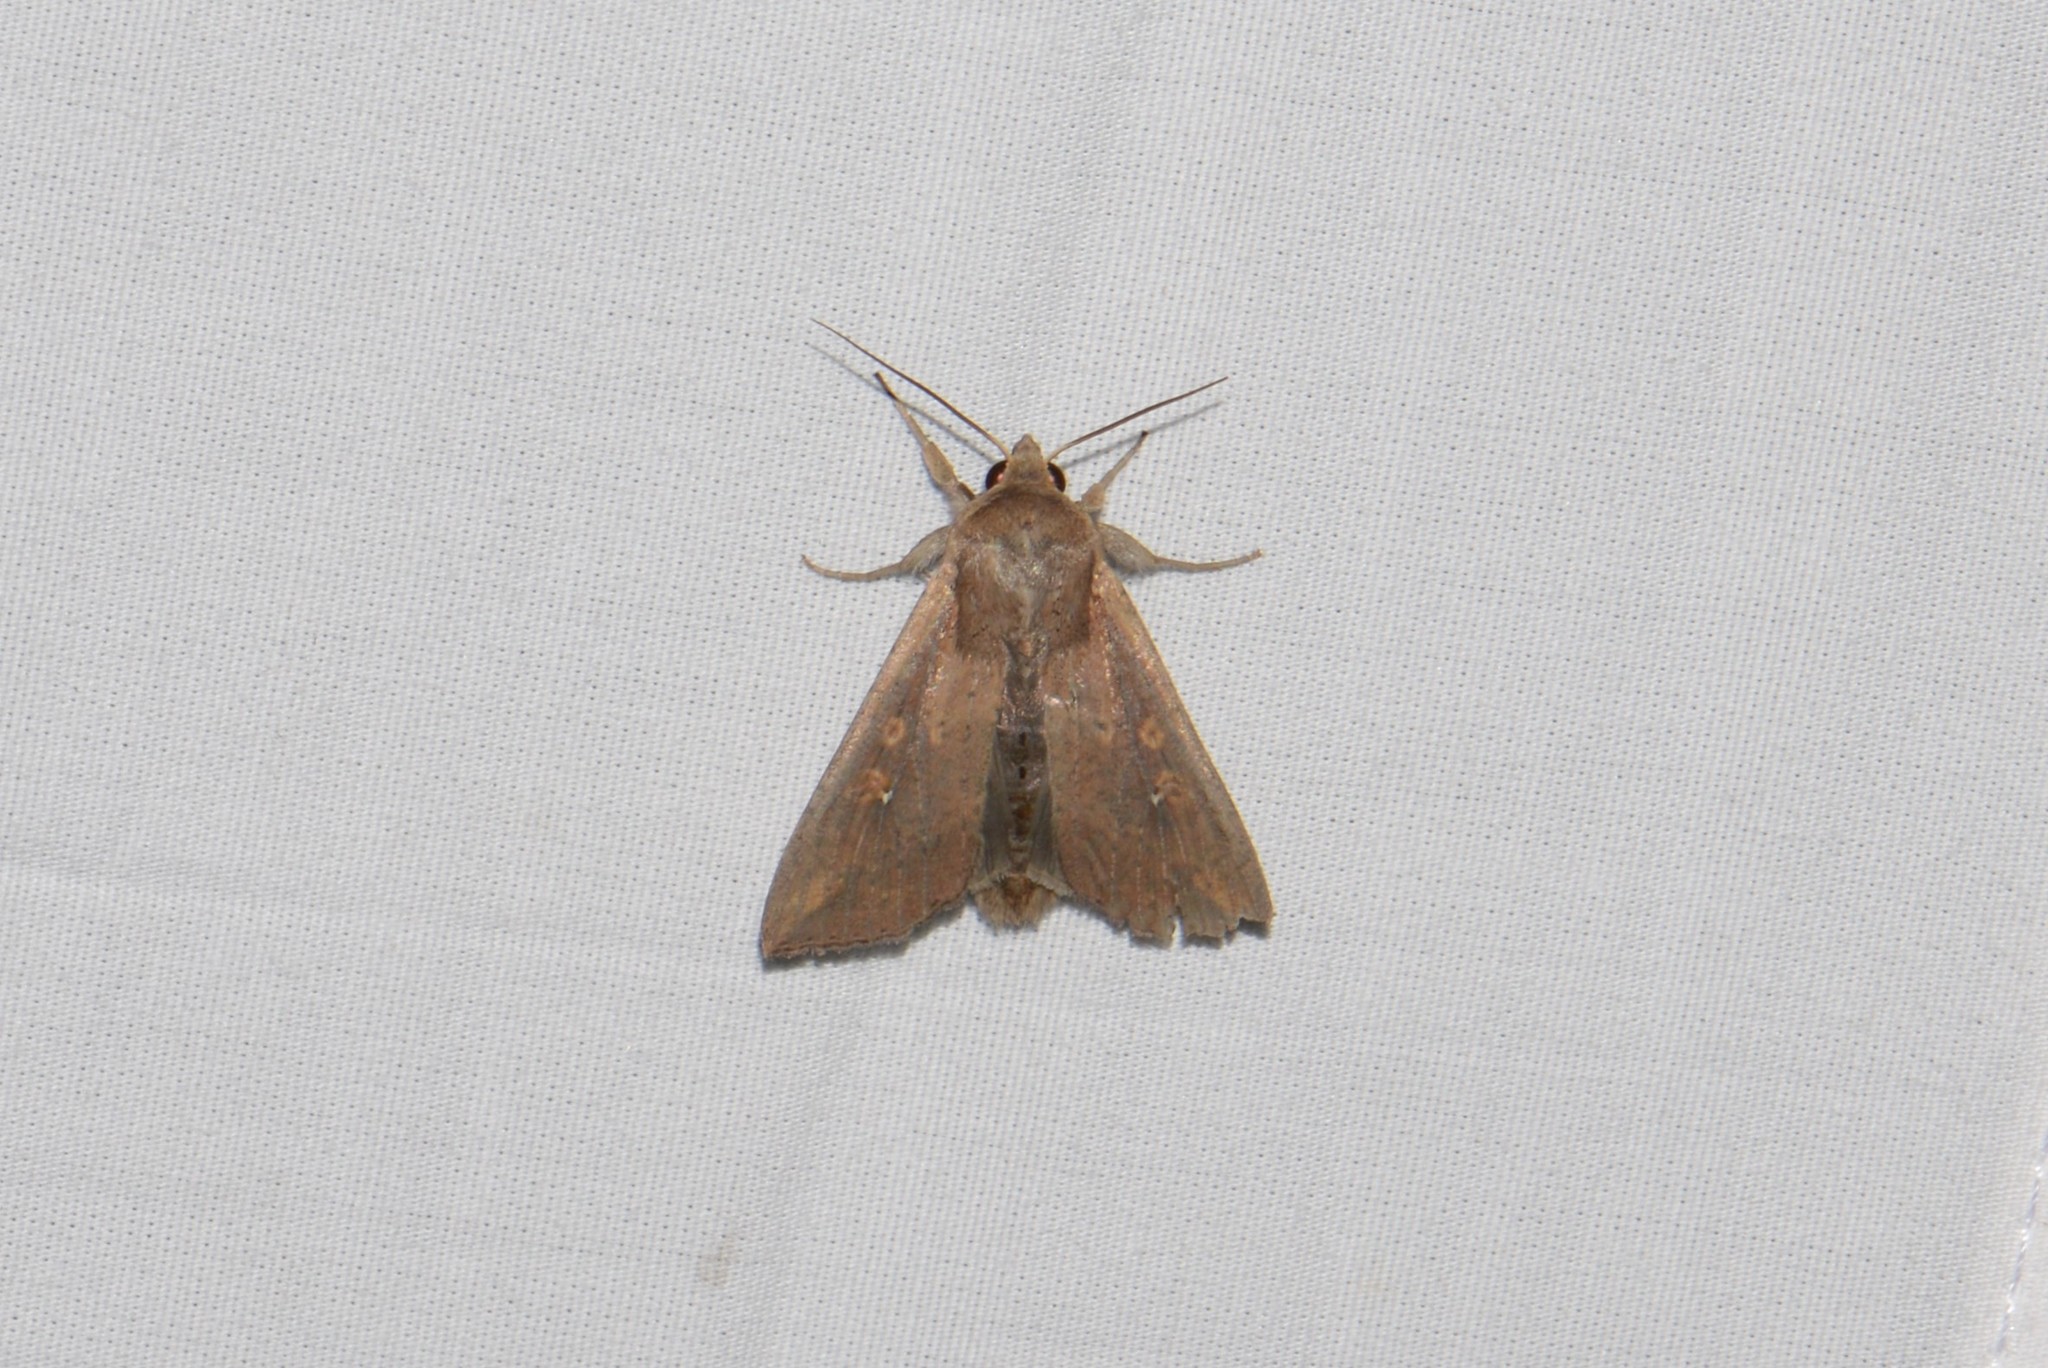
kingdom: Animalia
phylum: Arthropoda
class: Insecta
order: Lepidoptera
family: Noctuidae
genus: Mythimna
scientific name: Mythimna unipuncta
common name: White-speck
